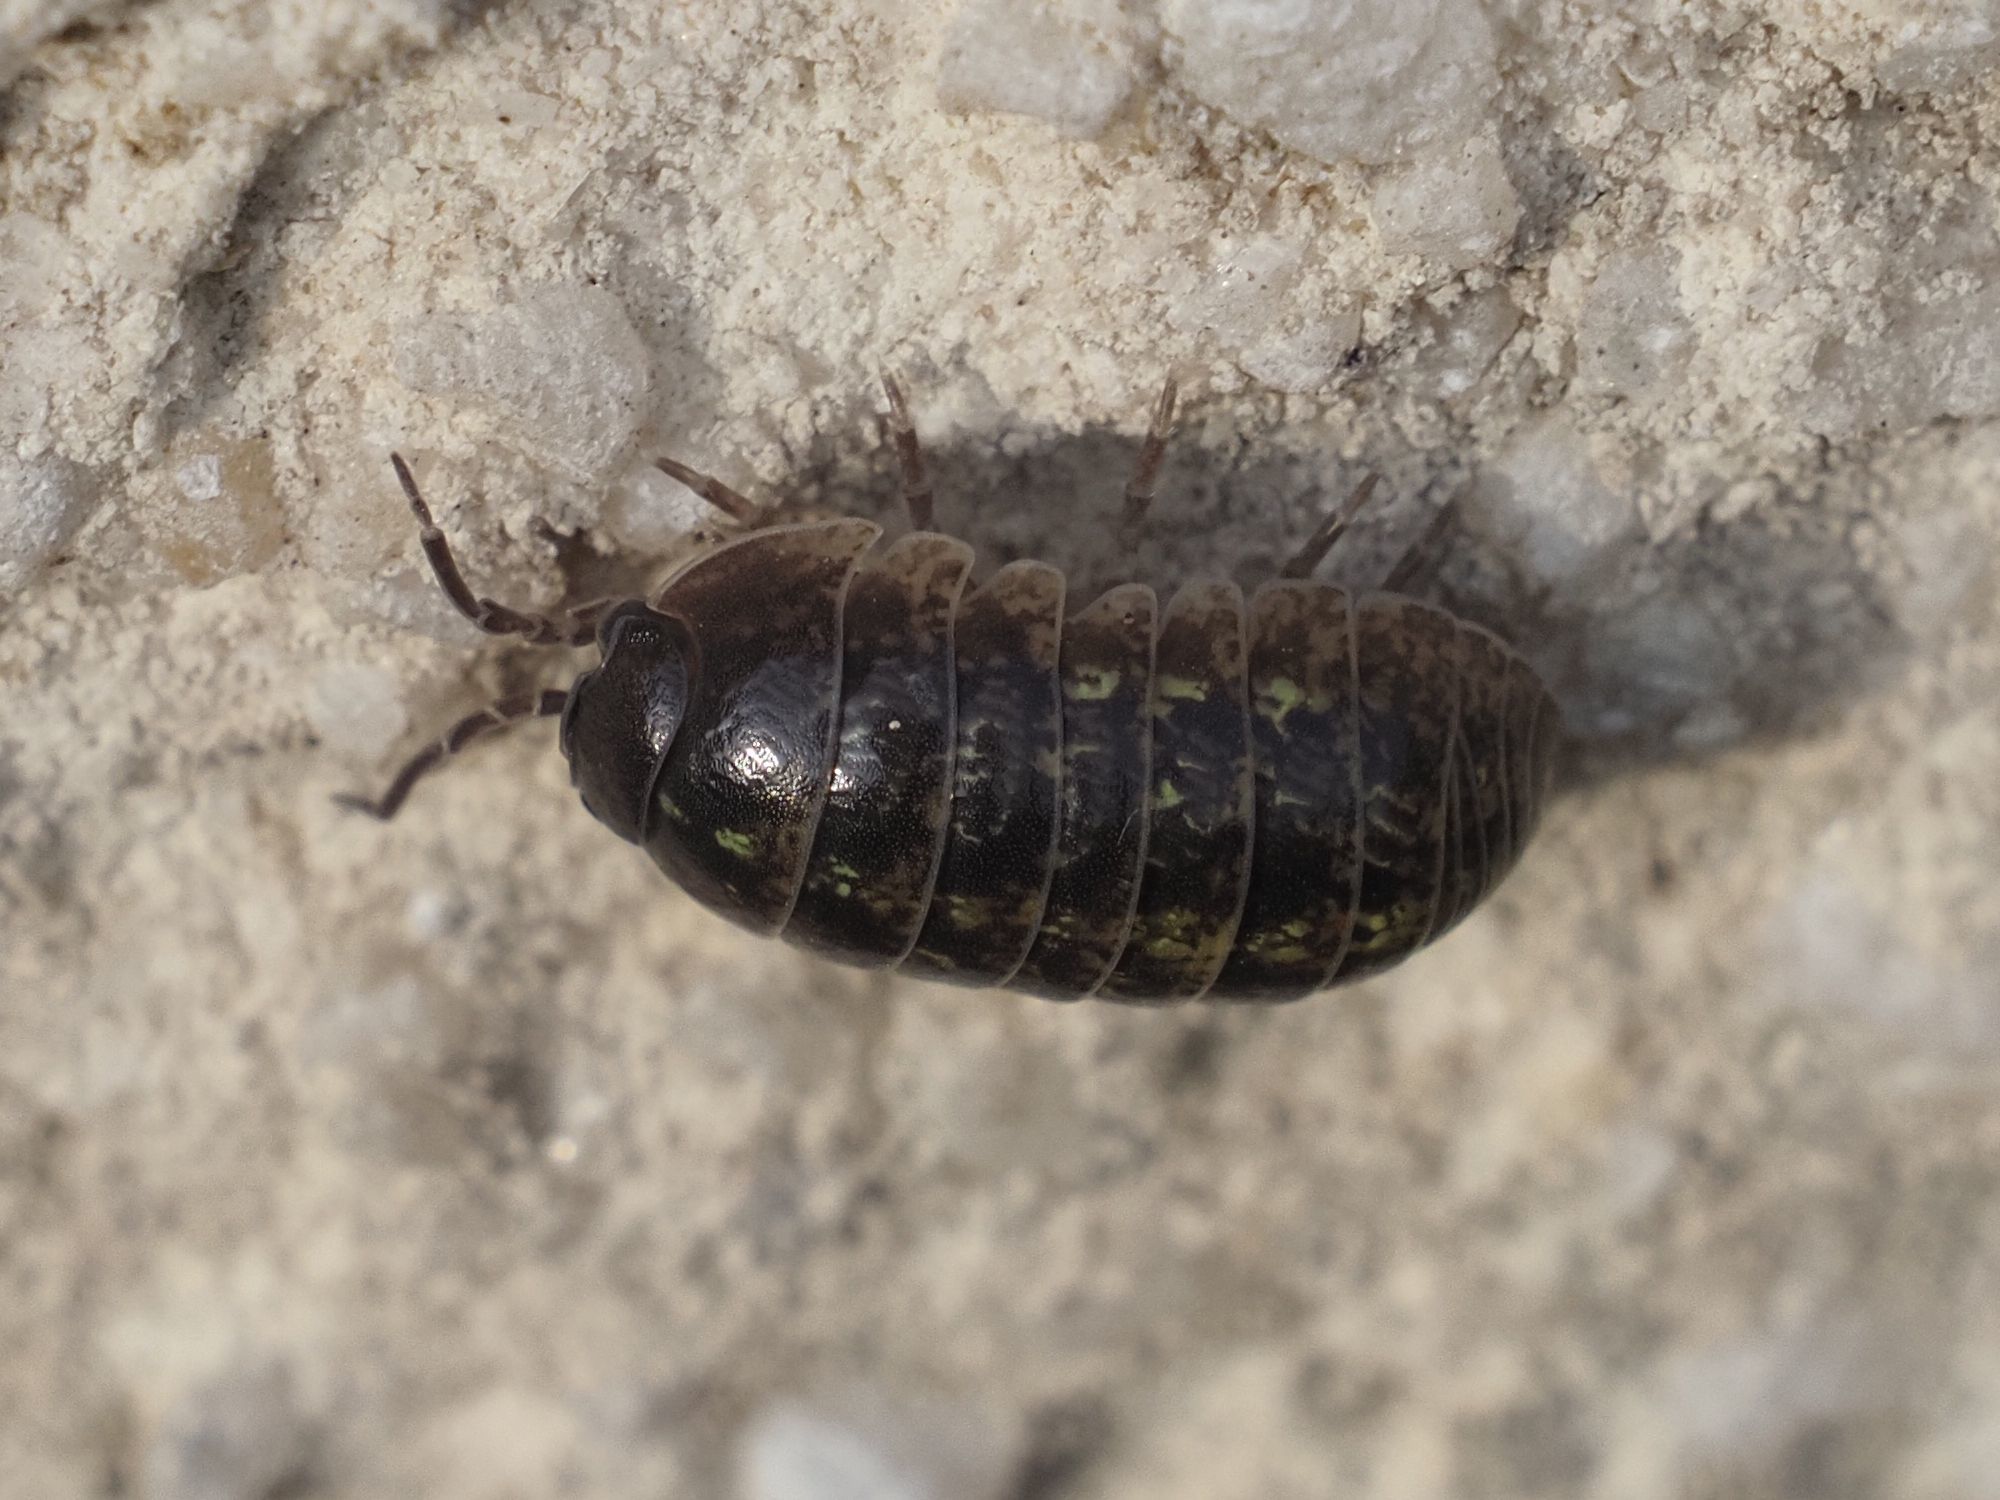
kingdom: Animalia
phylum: Arthropoda
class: Malacostraca
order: Isopoda
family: Armadillidiidae
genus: Armadillidium
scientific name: Armadillidium vulgare
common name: Common pill woodlouse
